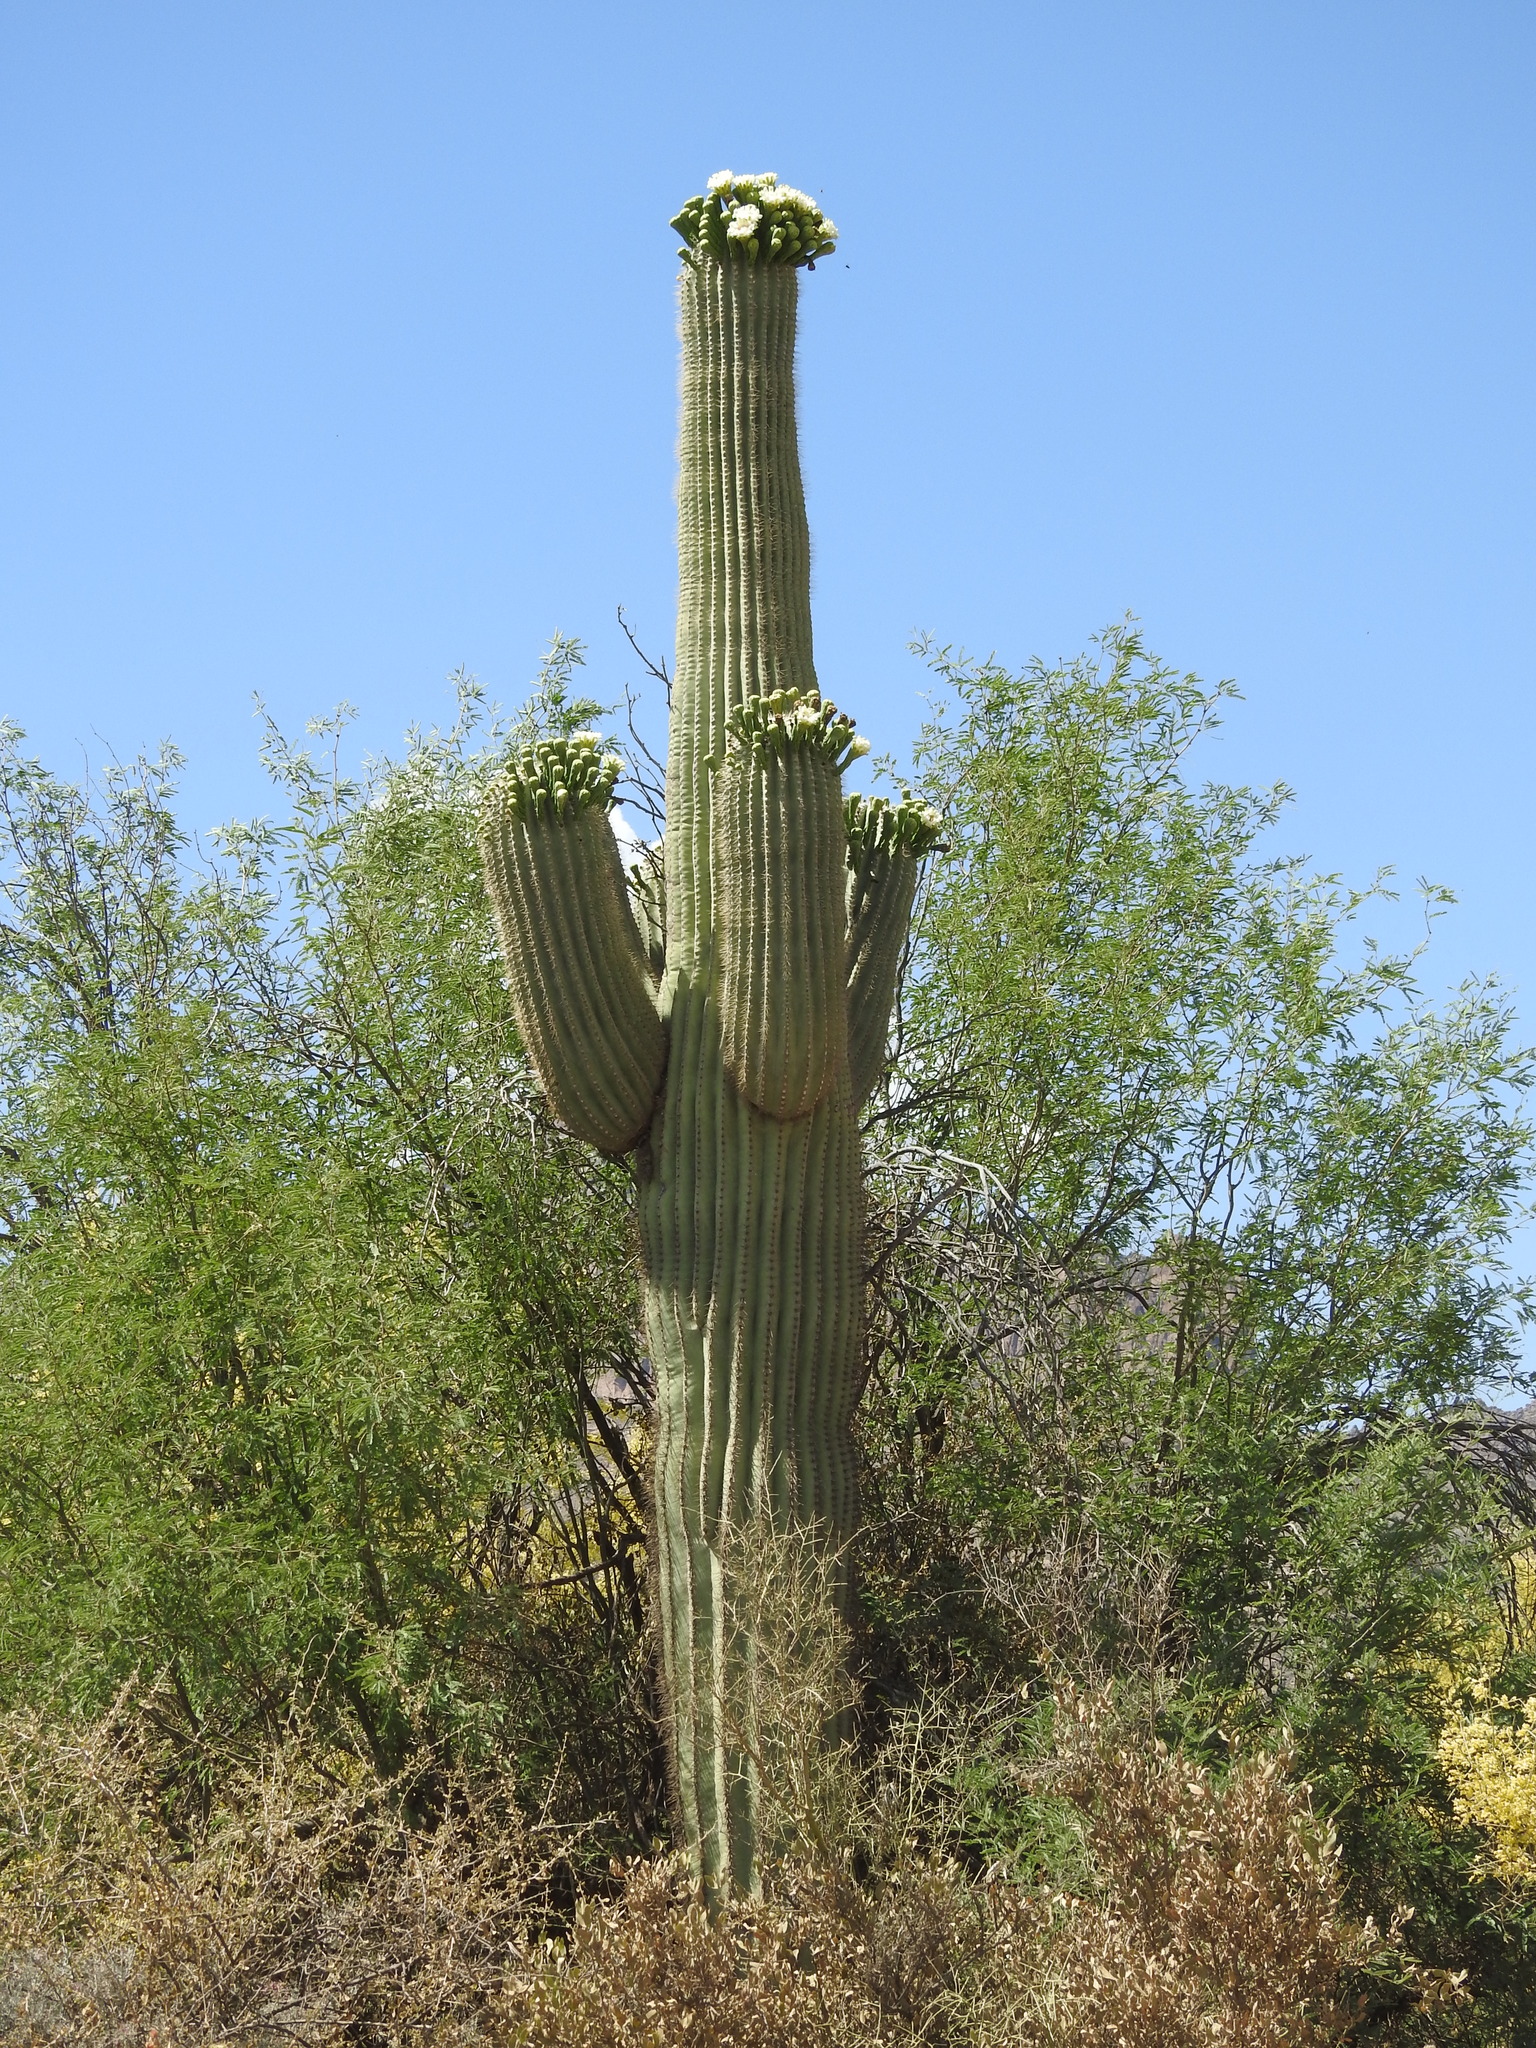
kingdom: Plantae
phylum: Tracheophyta
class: Magnoliopsida
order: Caryophyllales
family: Cactaceae
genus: Carnegiea
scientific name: Carnegiea gigantea
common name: Saguaro
